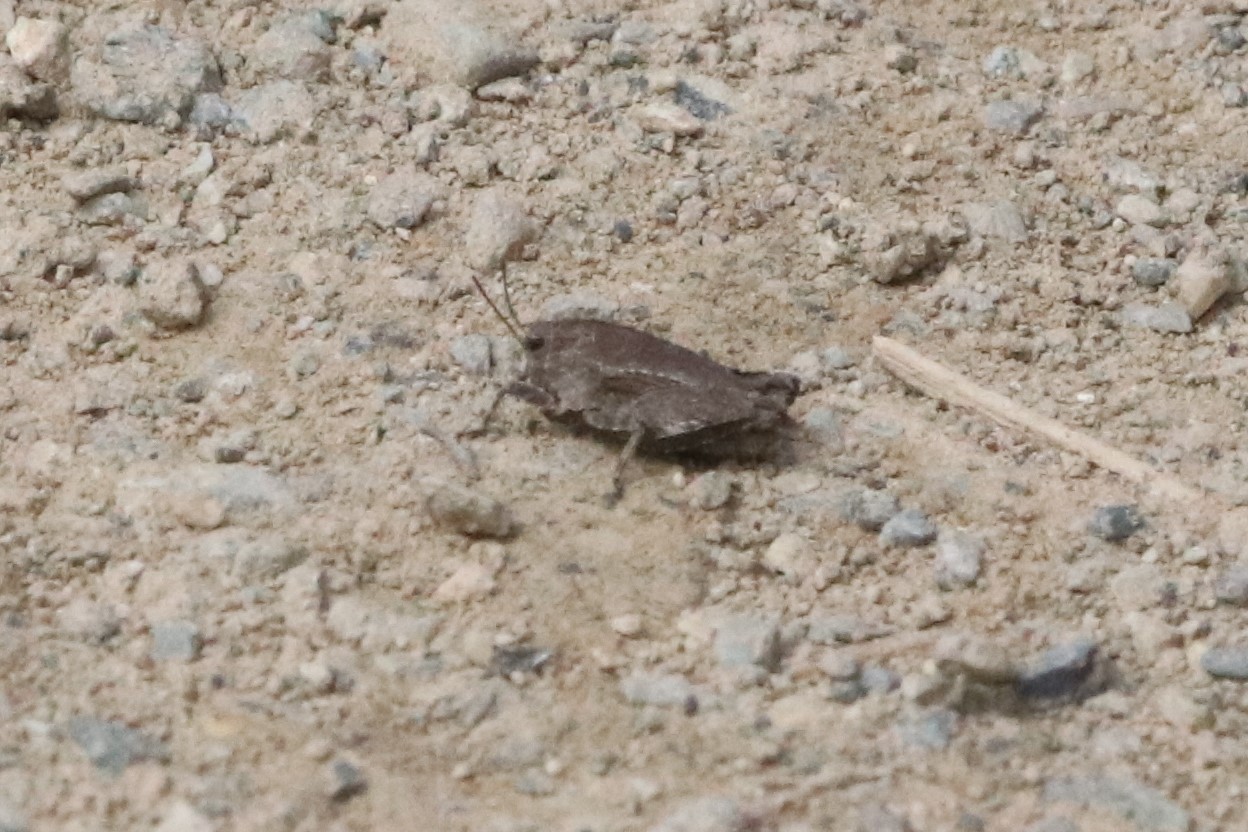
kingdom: Animalia
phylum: Arthropoda
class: Insecta
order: Orthoptera
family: Tetrigidae
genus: Nomotettix
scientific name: Nomotettix cristatus
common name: Crested grouse locust
